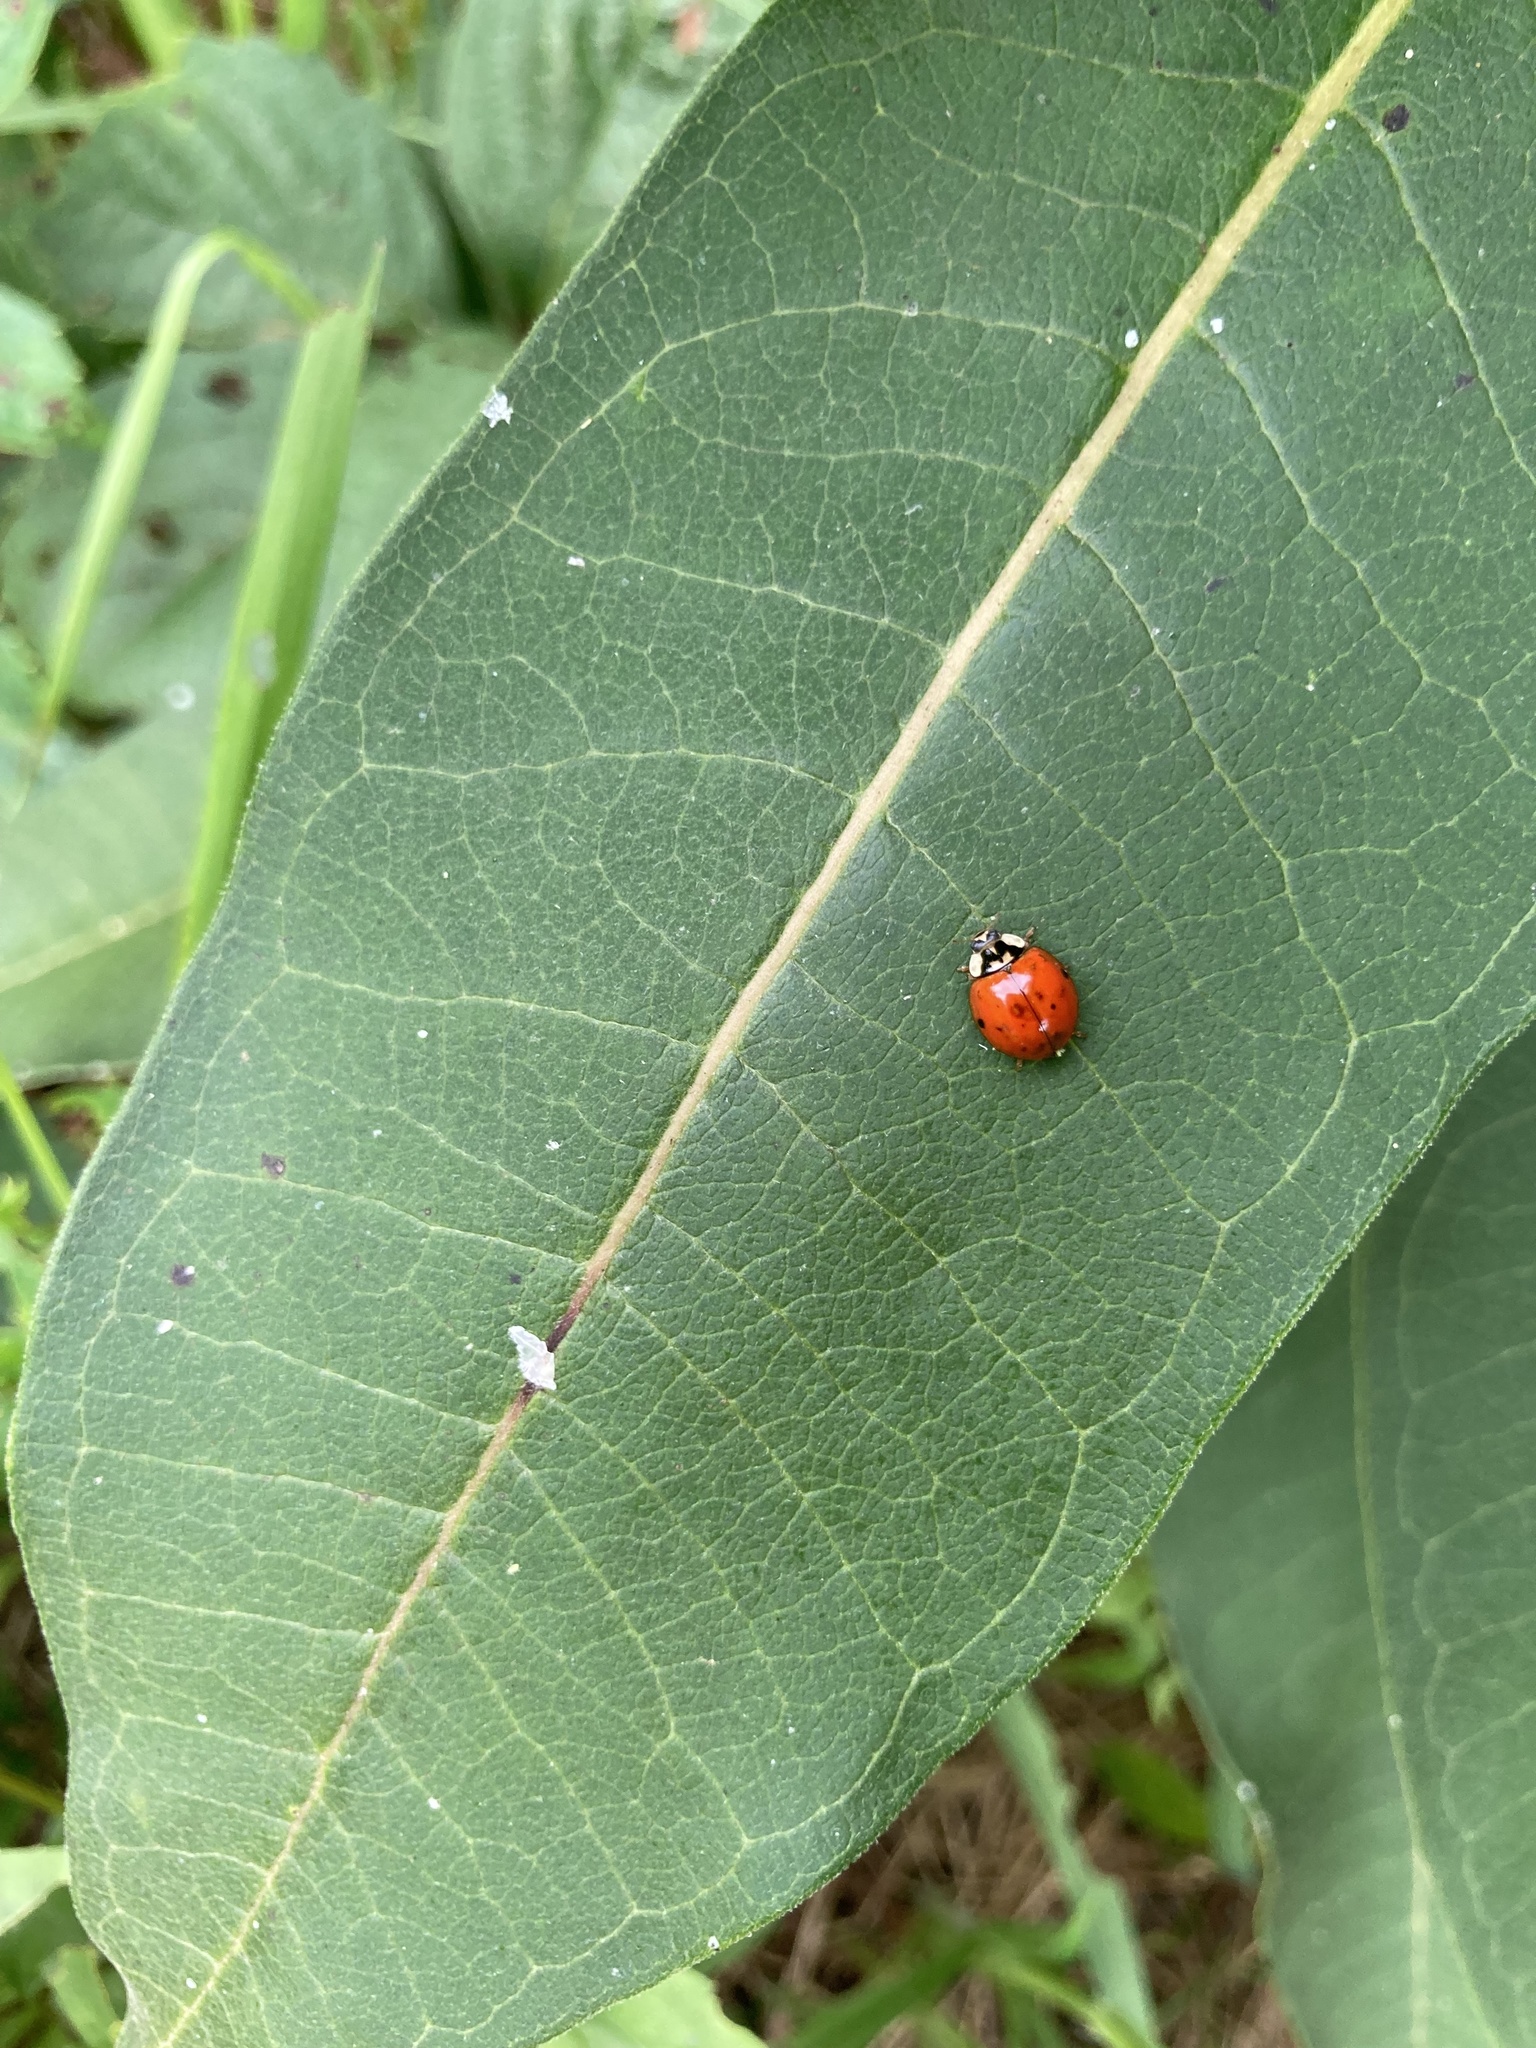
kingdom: Animalia
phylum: Arthropoda
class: Insecta
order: Coleoptera
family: Coccinellidae
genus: Harmonia
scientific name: Harmonia axyridis
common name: Harlequin ladybird
